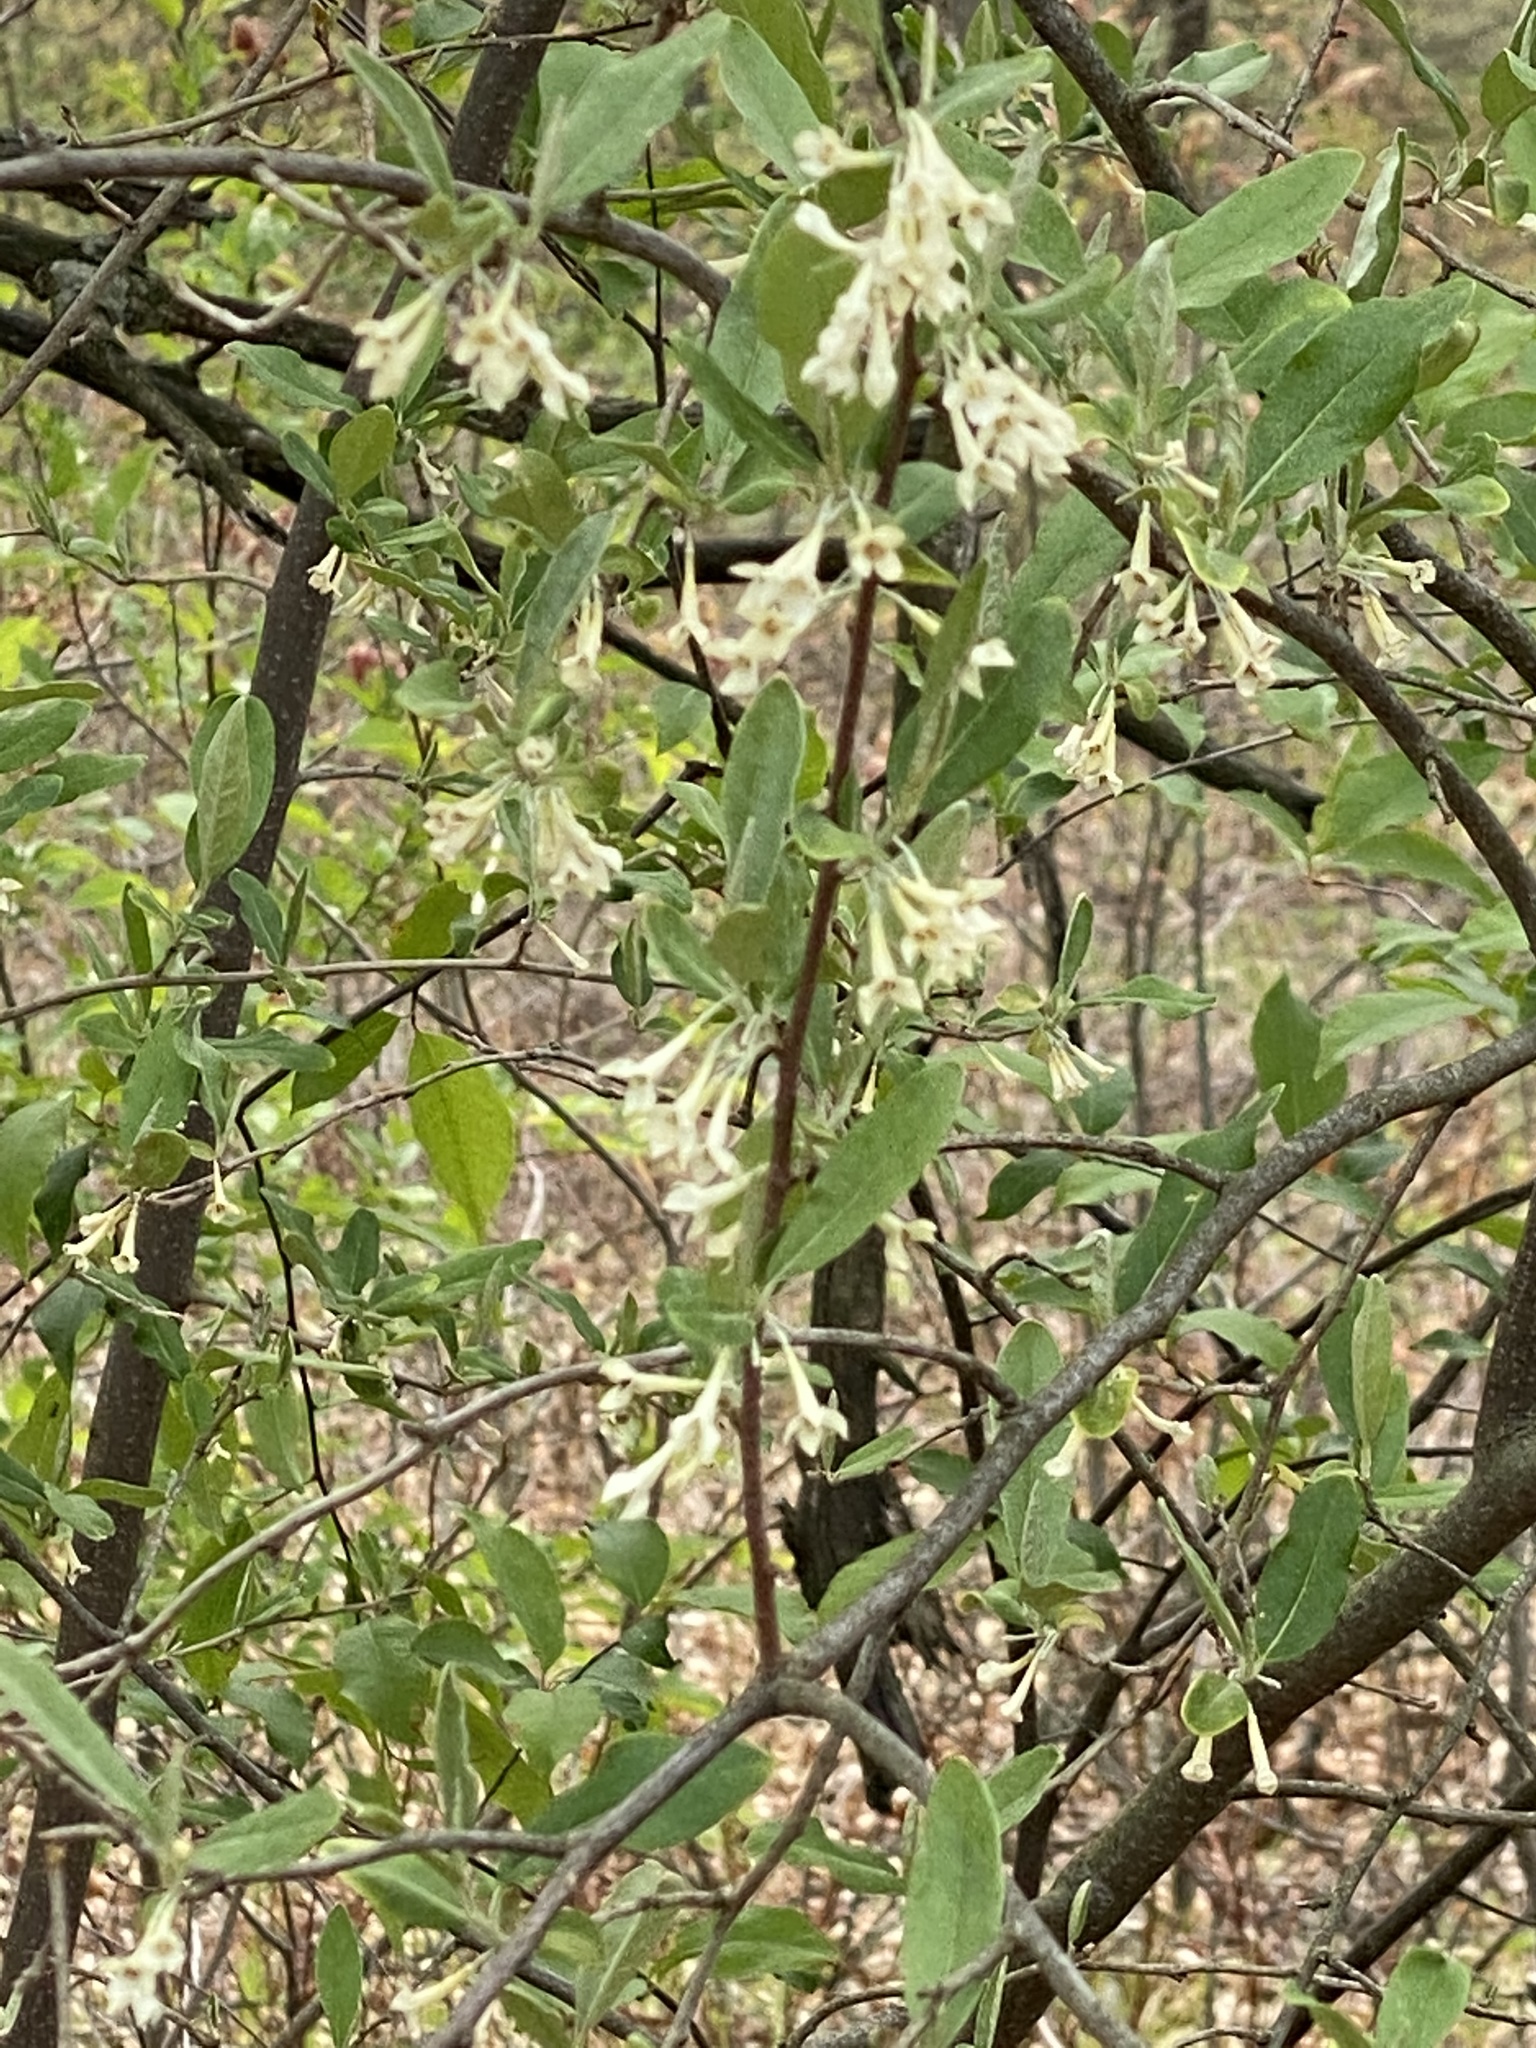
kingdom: Plantae
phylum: Tracheophyta
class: Magnoliopsida
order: Rosales
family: Elaeagnaceae
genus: Elaeagnus
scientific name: Elaeagnus umbellata
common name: Autumn olive
